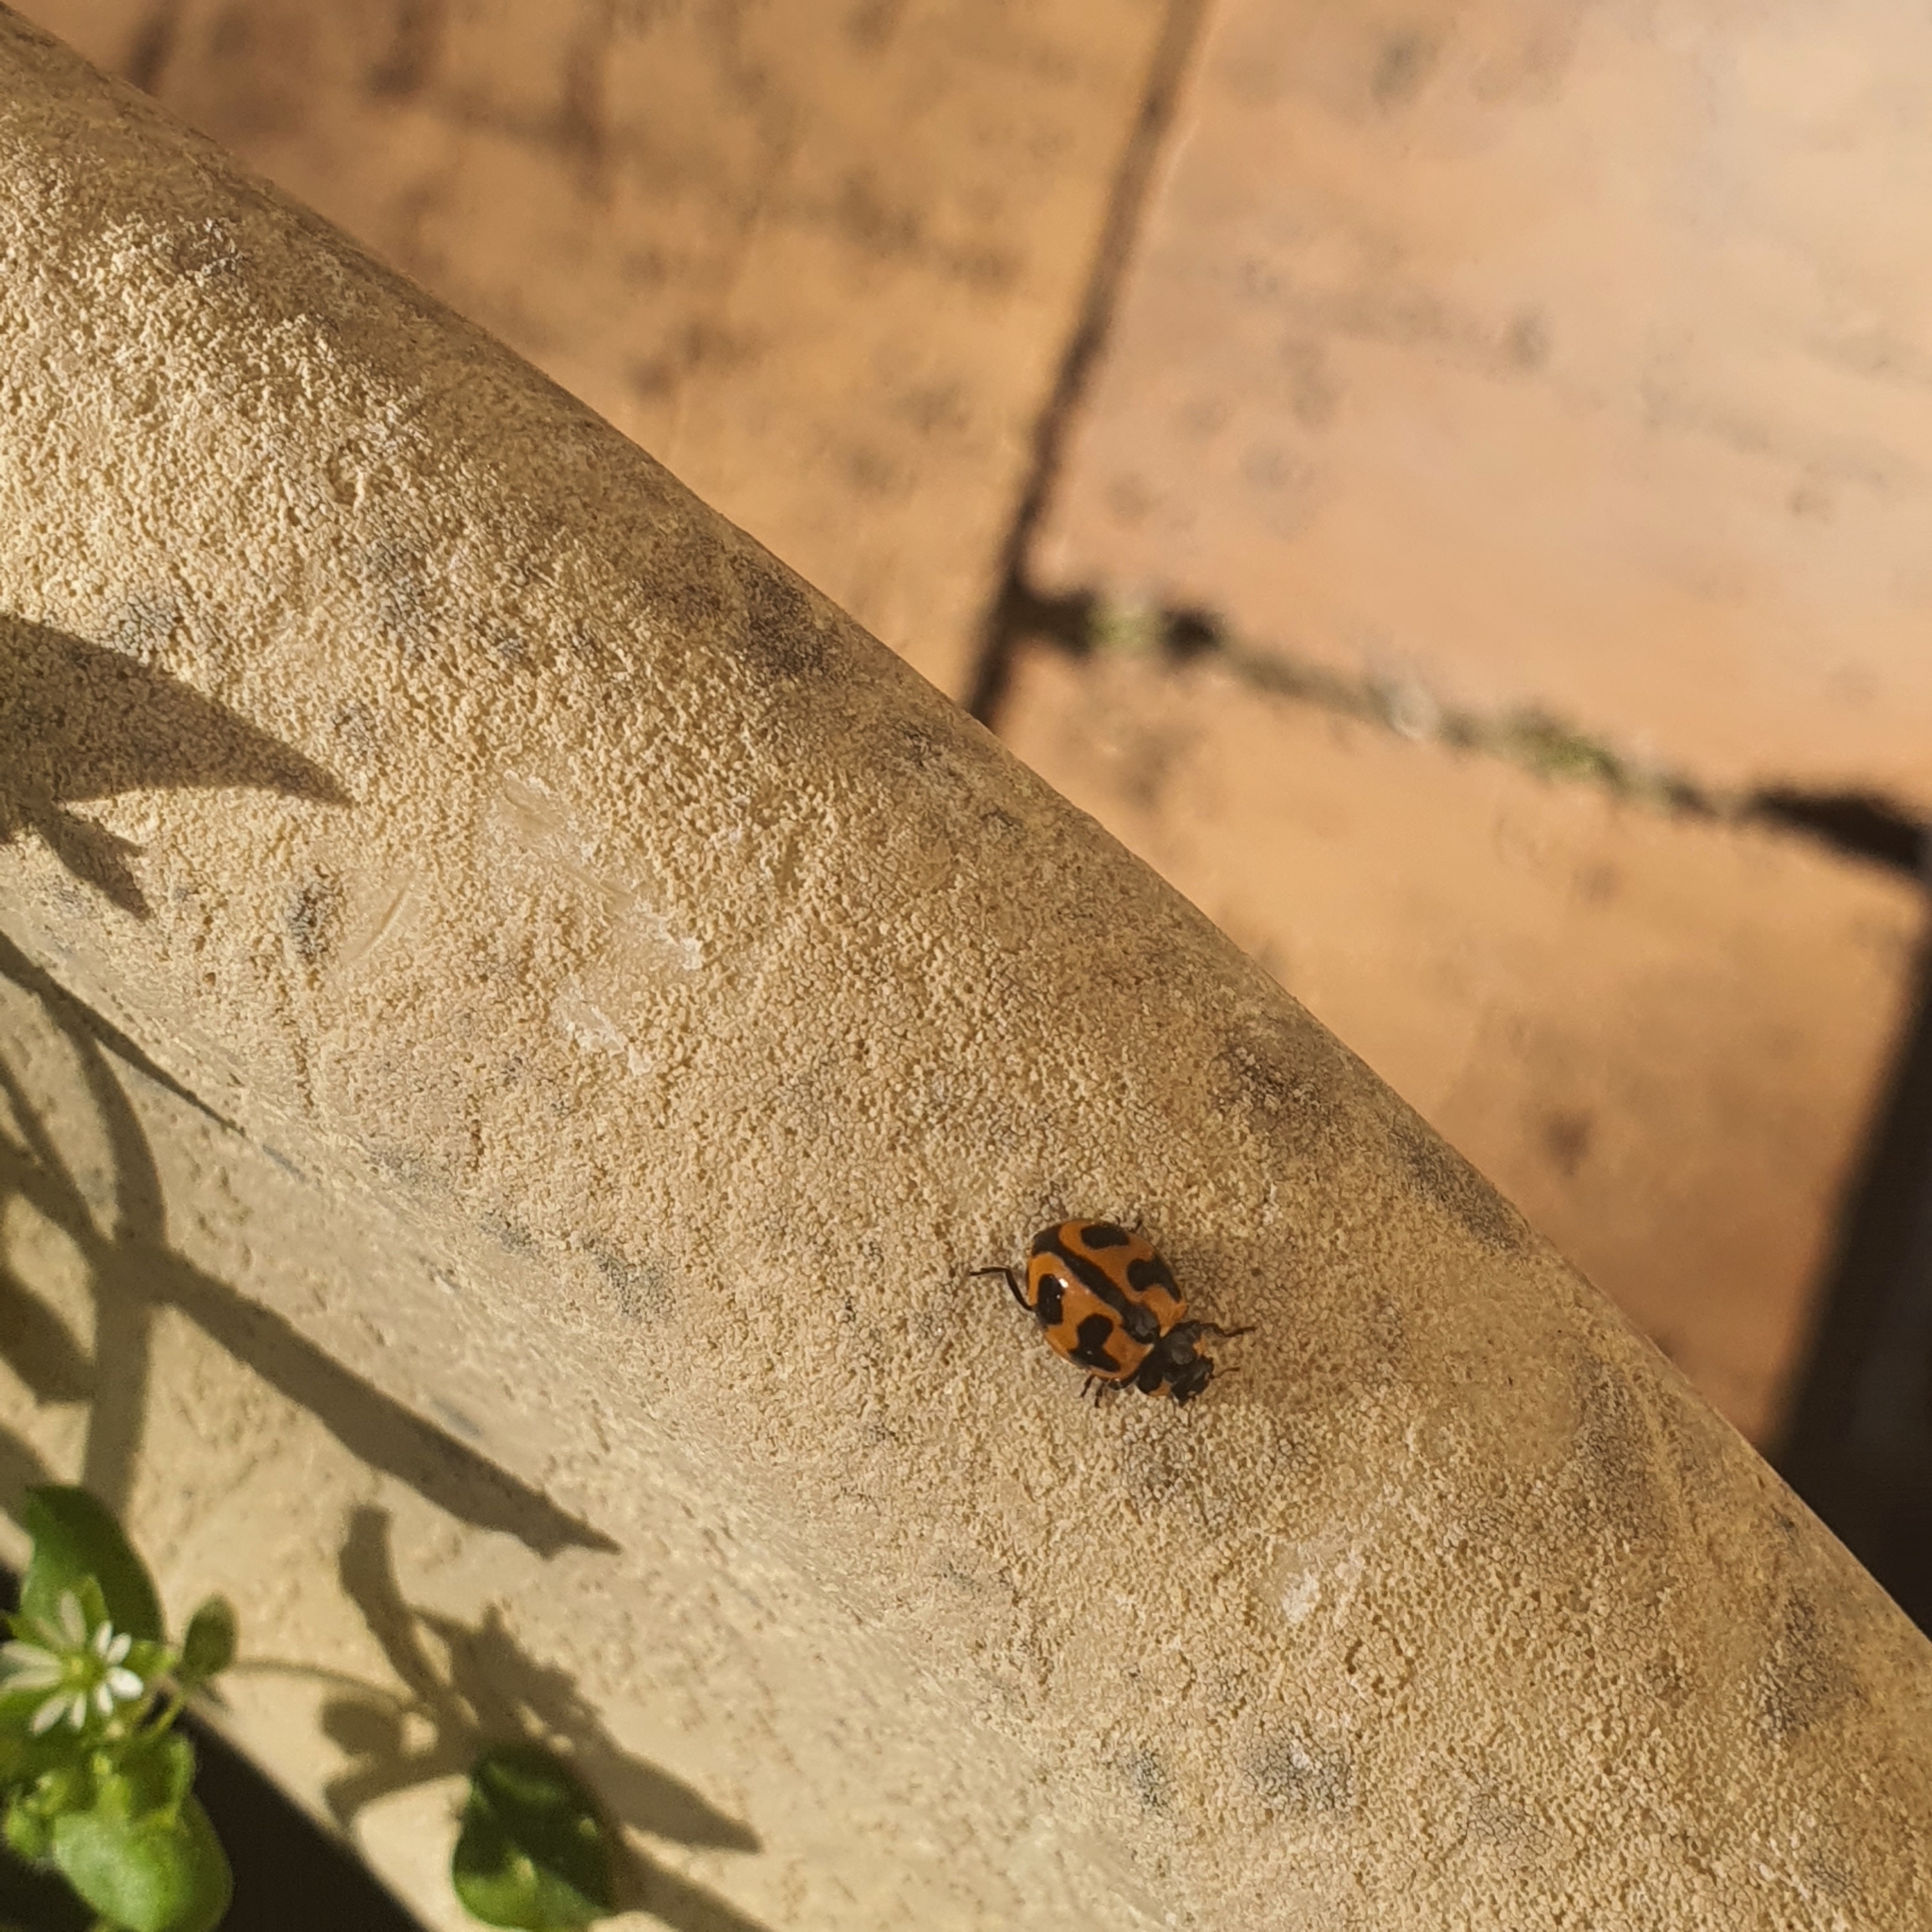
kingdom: Animalia
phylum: Arthropoda
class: Insecta
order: Coleoptera
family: Coccinellidae
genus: Coccinella
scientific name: Coccinella transversalis
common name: Transverse lady beetle
